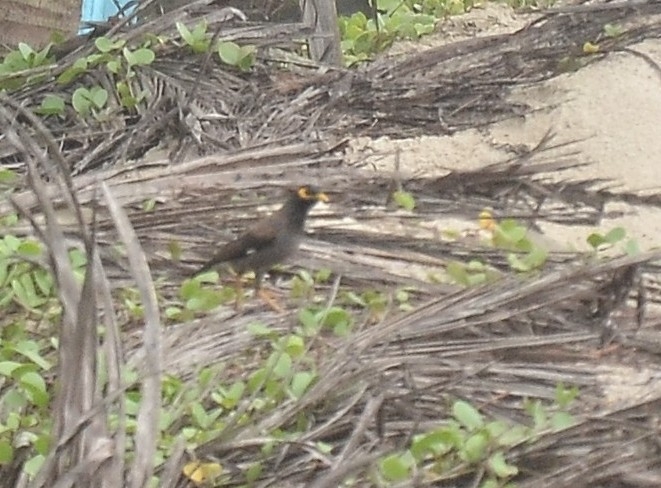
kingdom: Animalia
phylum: Chordata
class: Aves
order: Passeriformes
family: Sturnidae
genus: Acridotheres
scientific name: Acridotheres tristis
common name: Common myna
